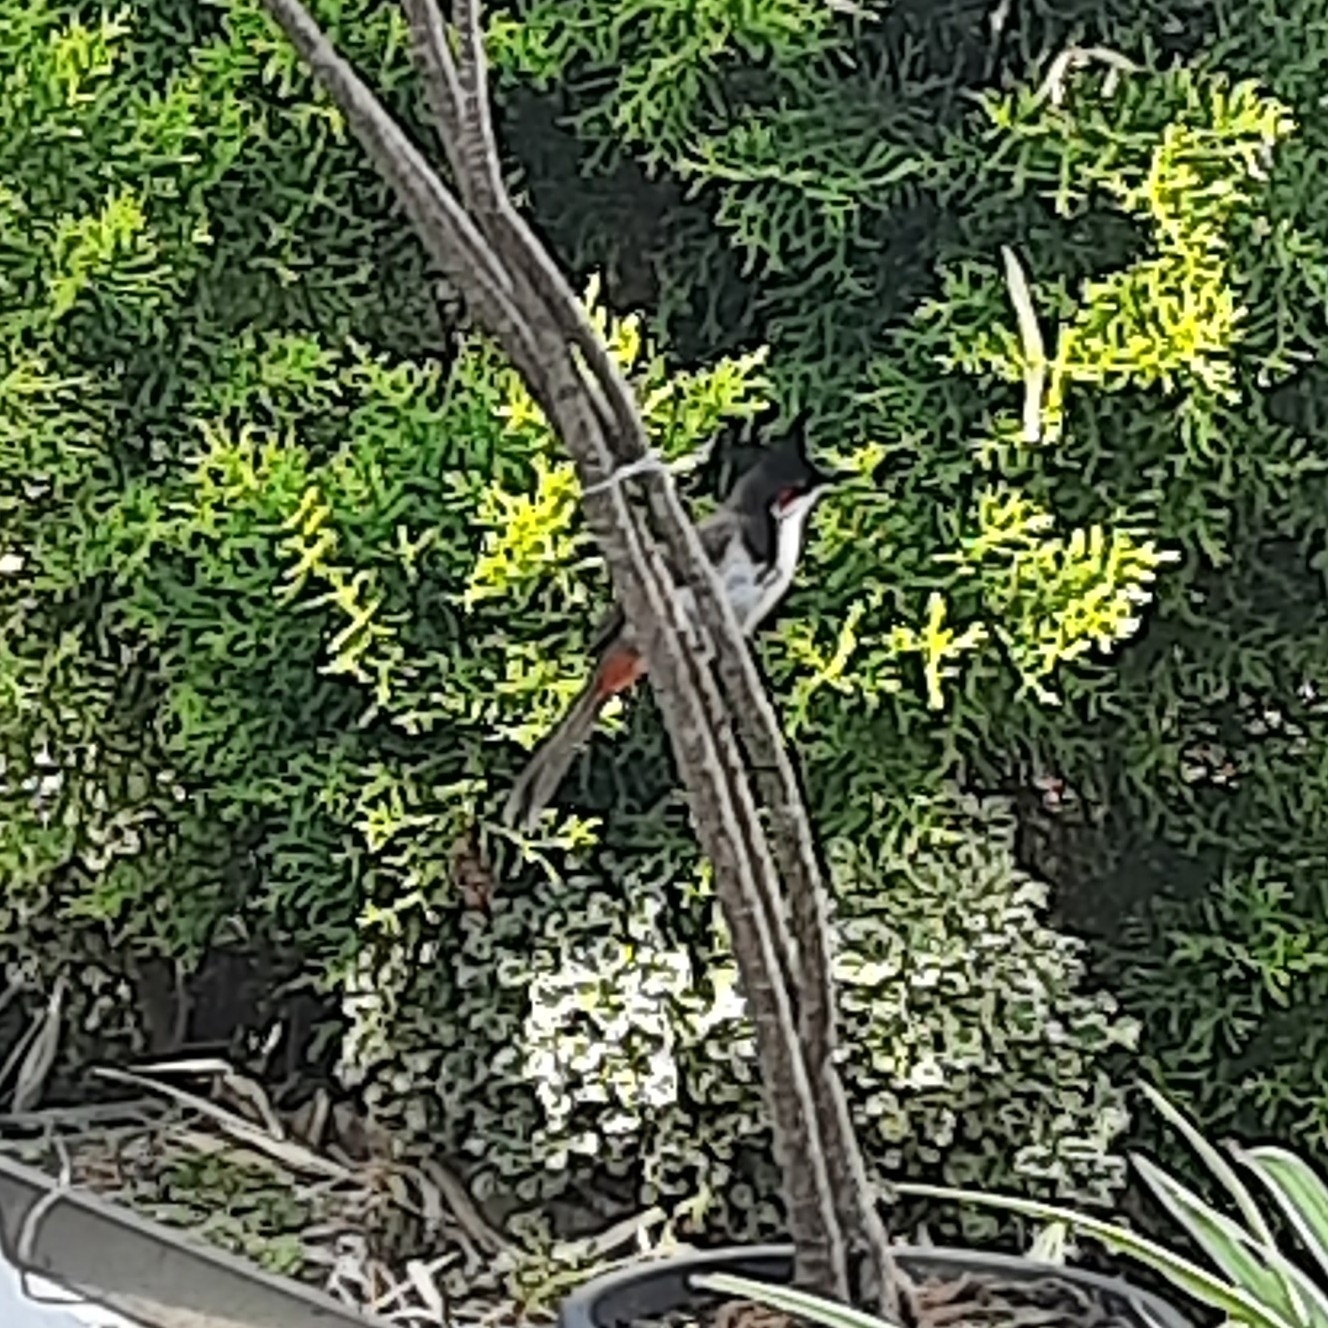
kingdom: Animalia
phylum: Chordata
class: Aves
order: Passeriformes
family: Pycnonotidae
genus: Pycnonotus
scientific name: Pycnonotus jocosus
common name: Red-whiskered bulbul
